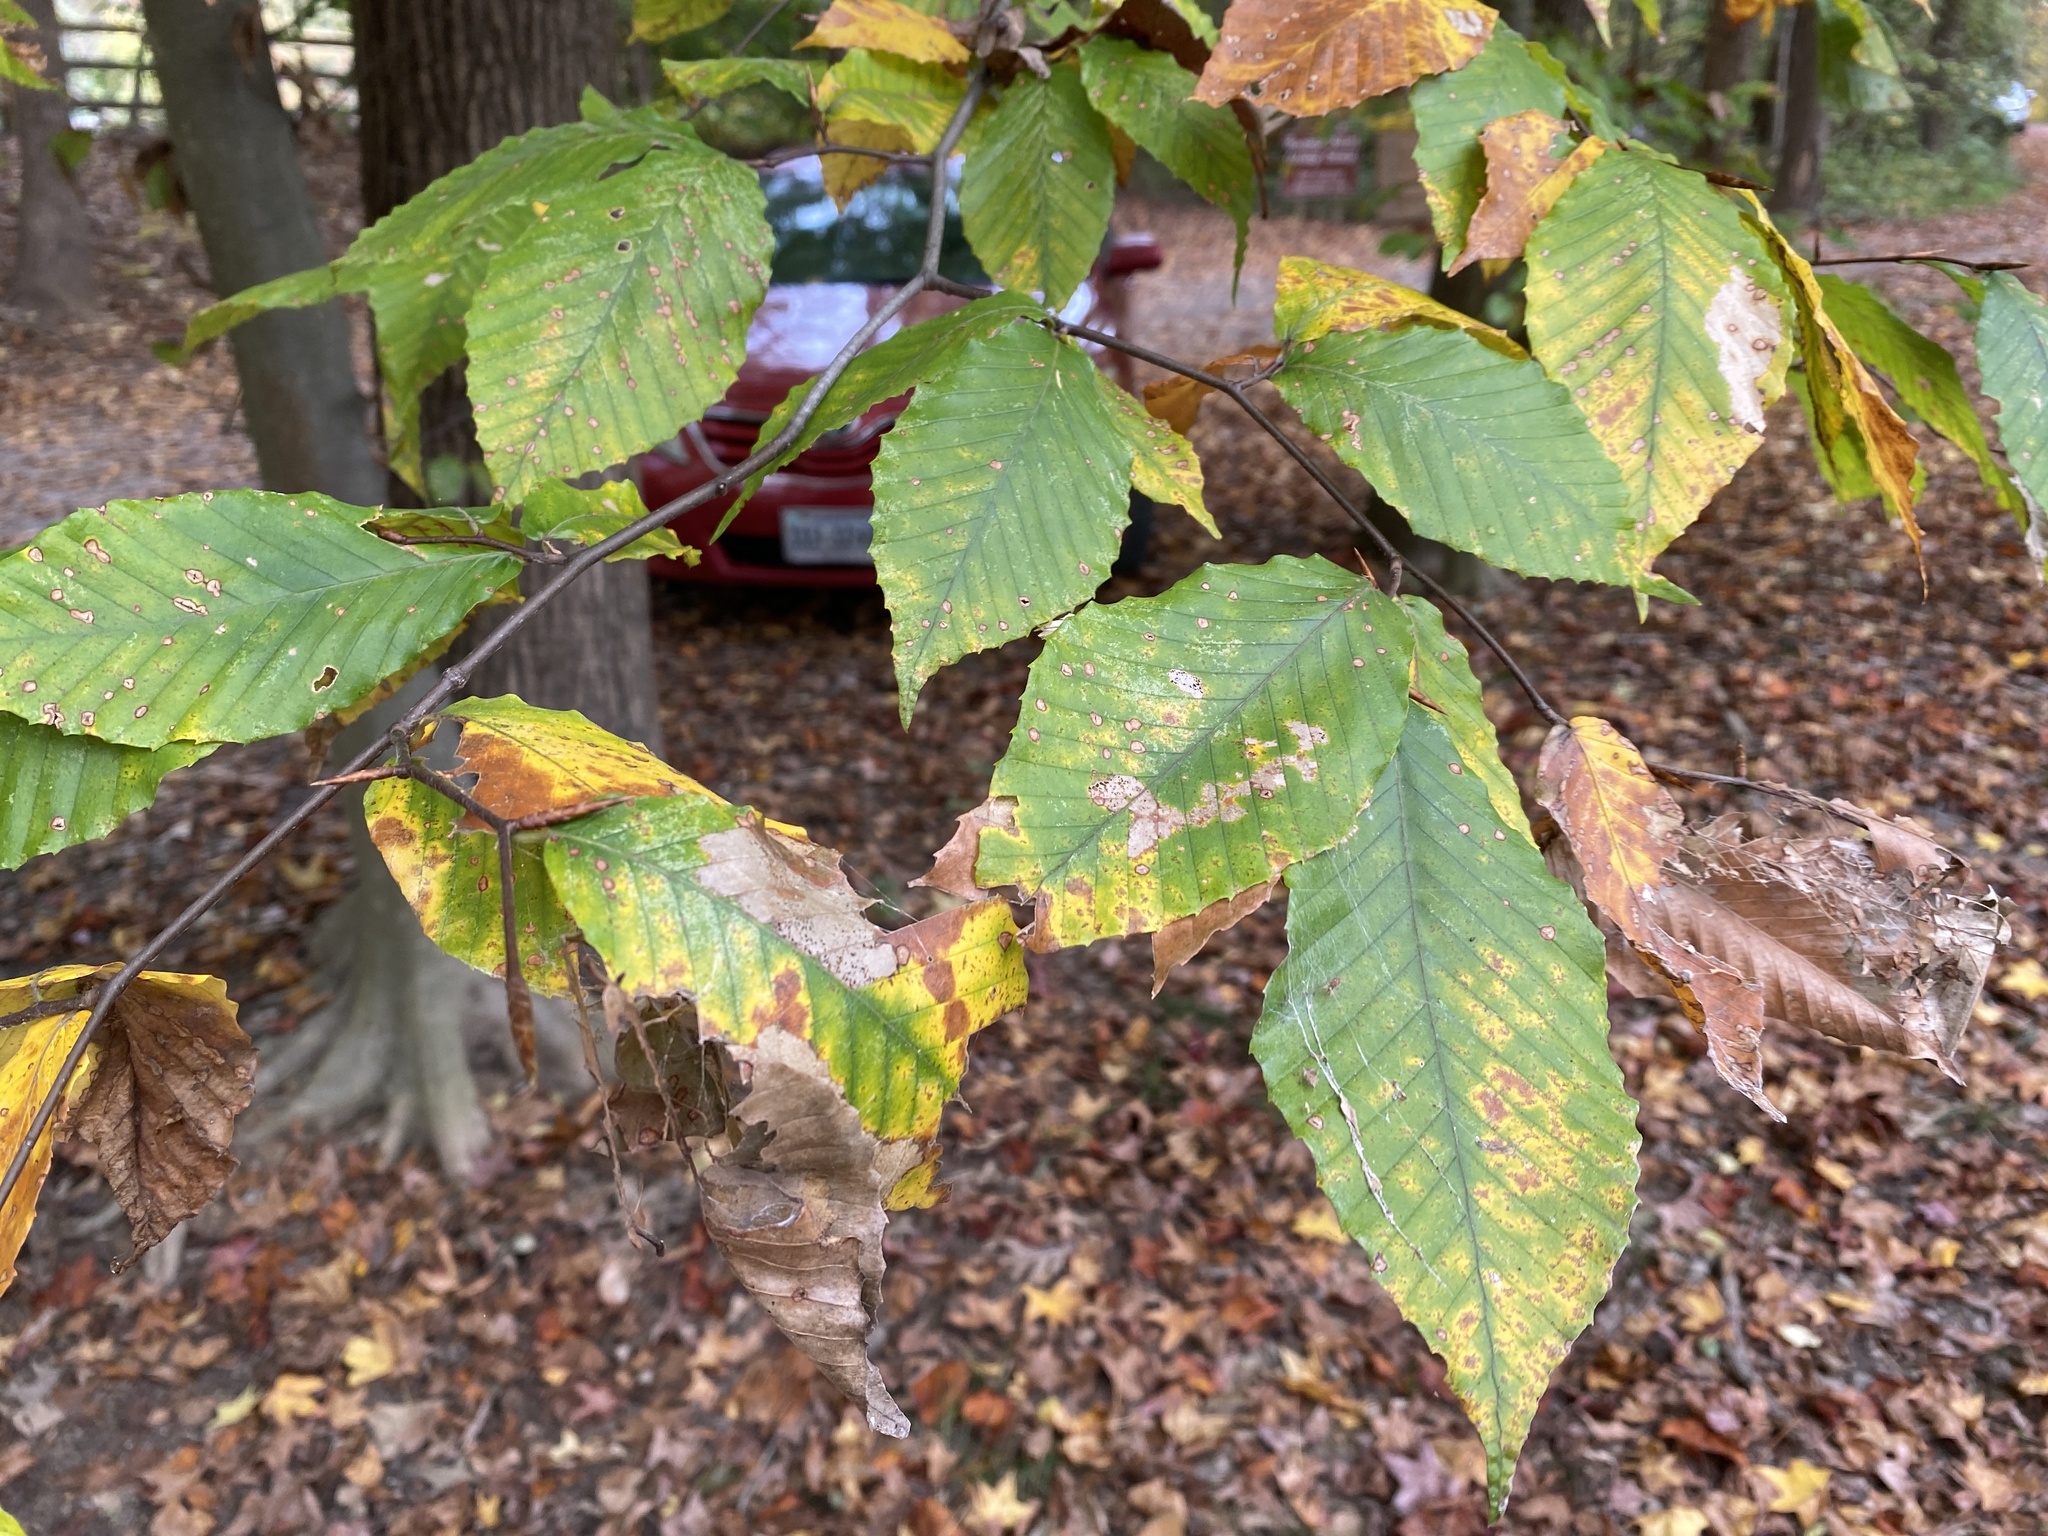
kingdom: Plantae
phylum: Tracheophyta
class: Magnoliopsida
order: Fagales
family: Fagaceae
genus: Fagus
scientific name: Fagus grandifolia
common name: American beech
